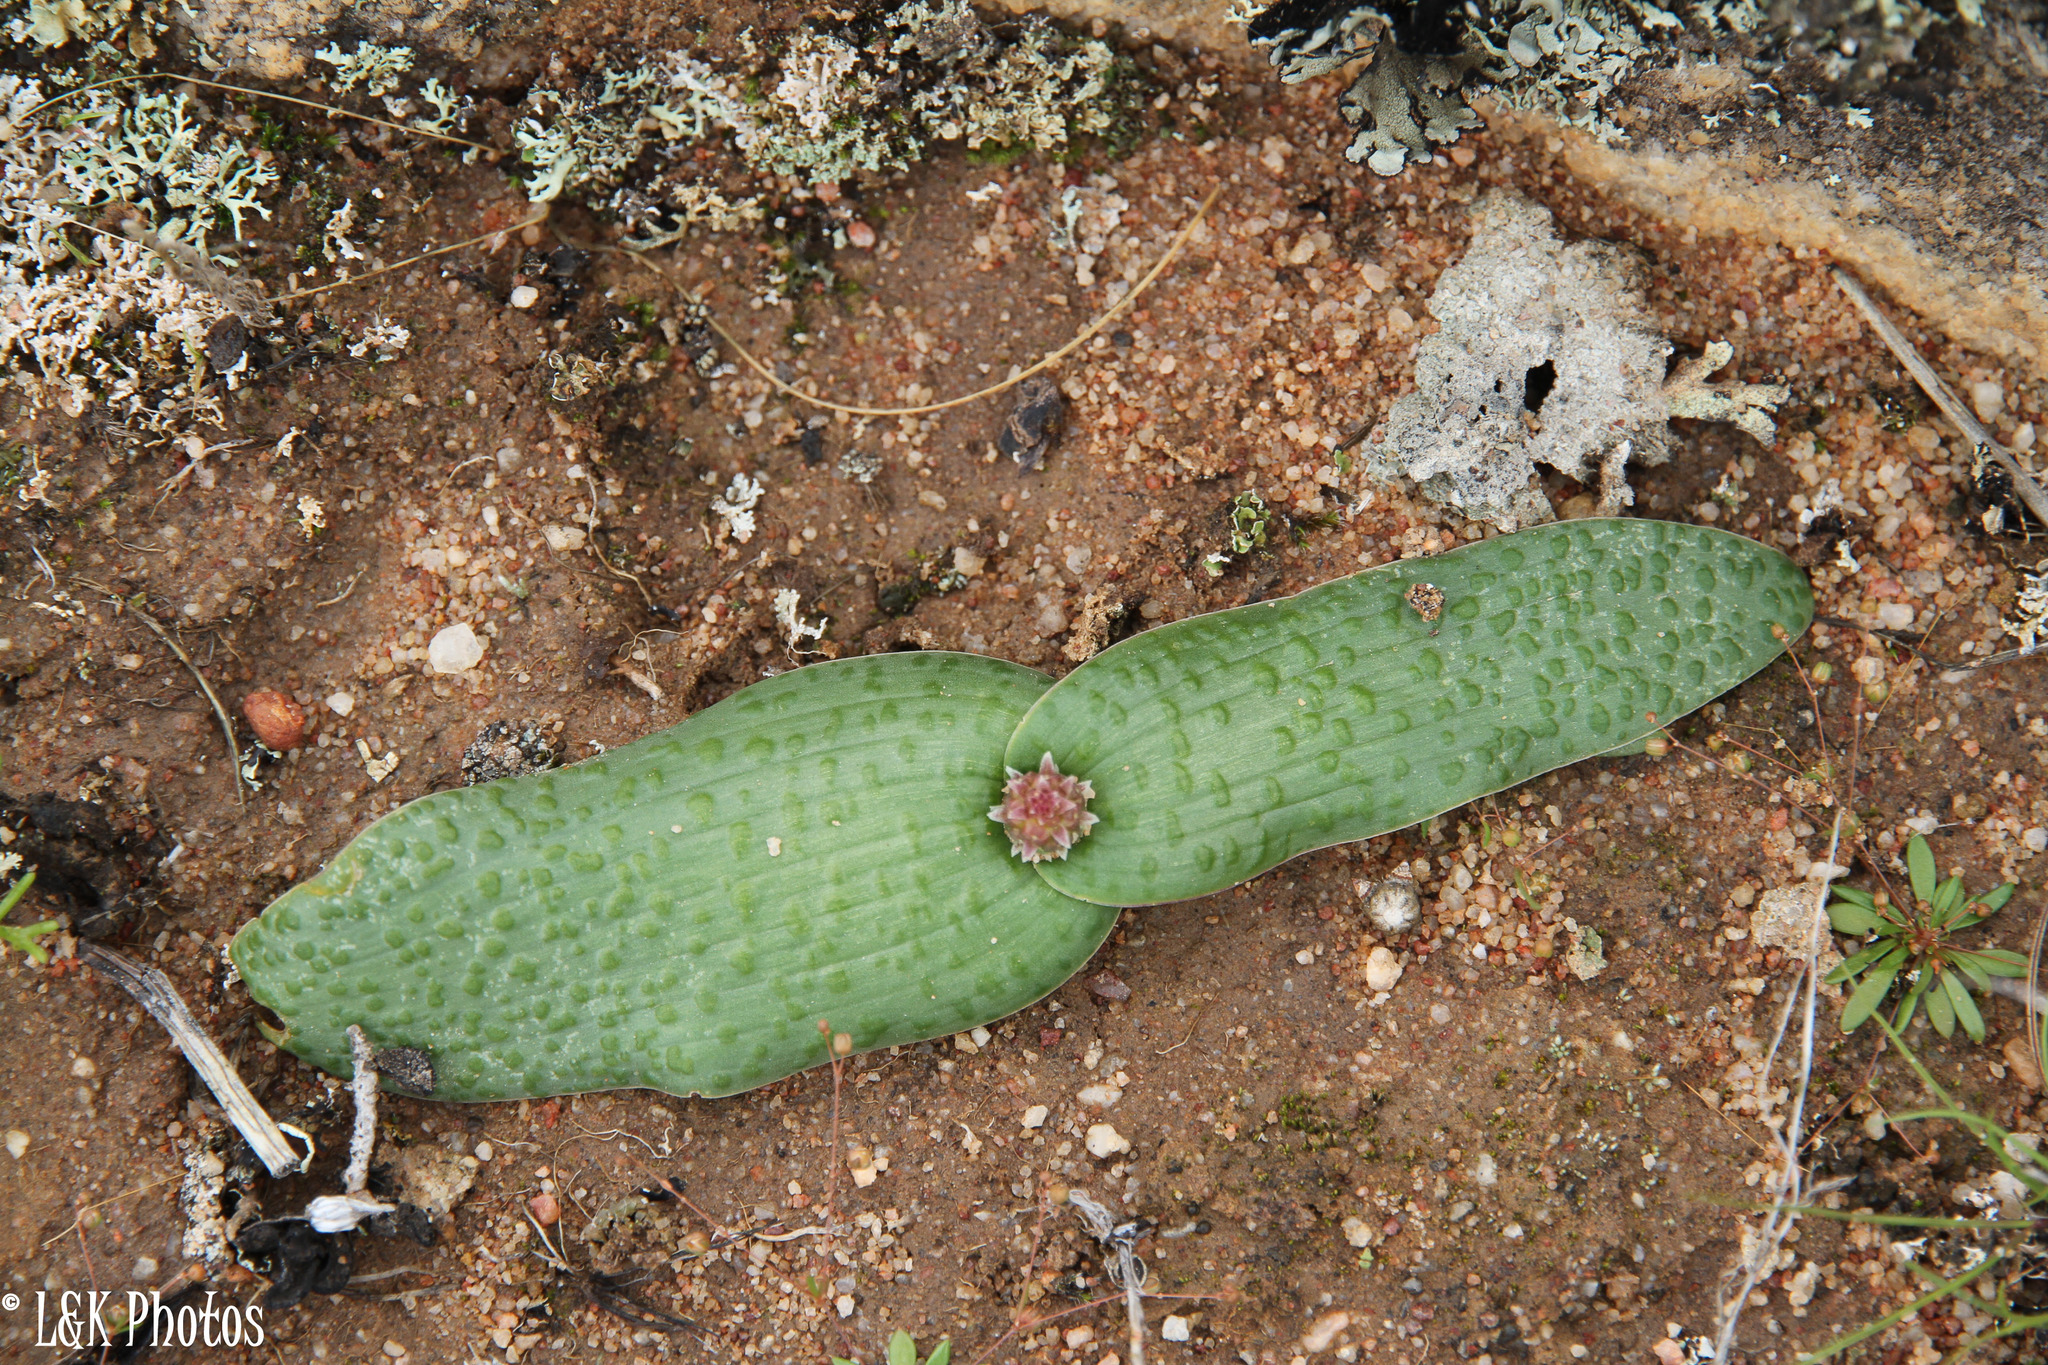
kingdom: Plantae
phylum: Tracheophyta
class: Liliopsida
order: Asparagales
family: Asparagaceae
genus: Lachenalia
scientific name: Lachenalia nardousbergensis
